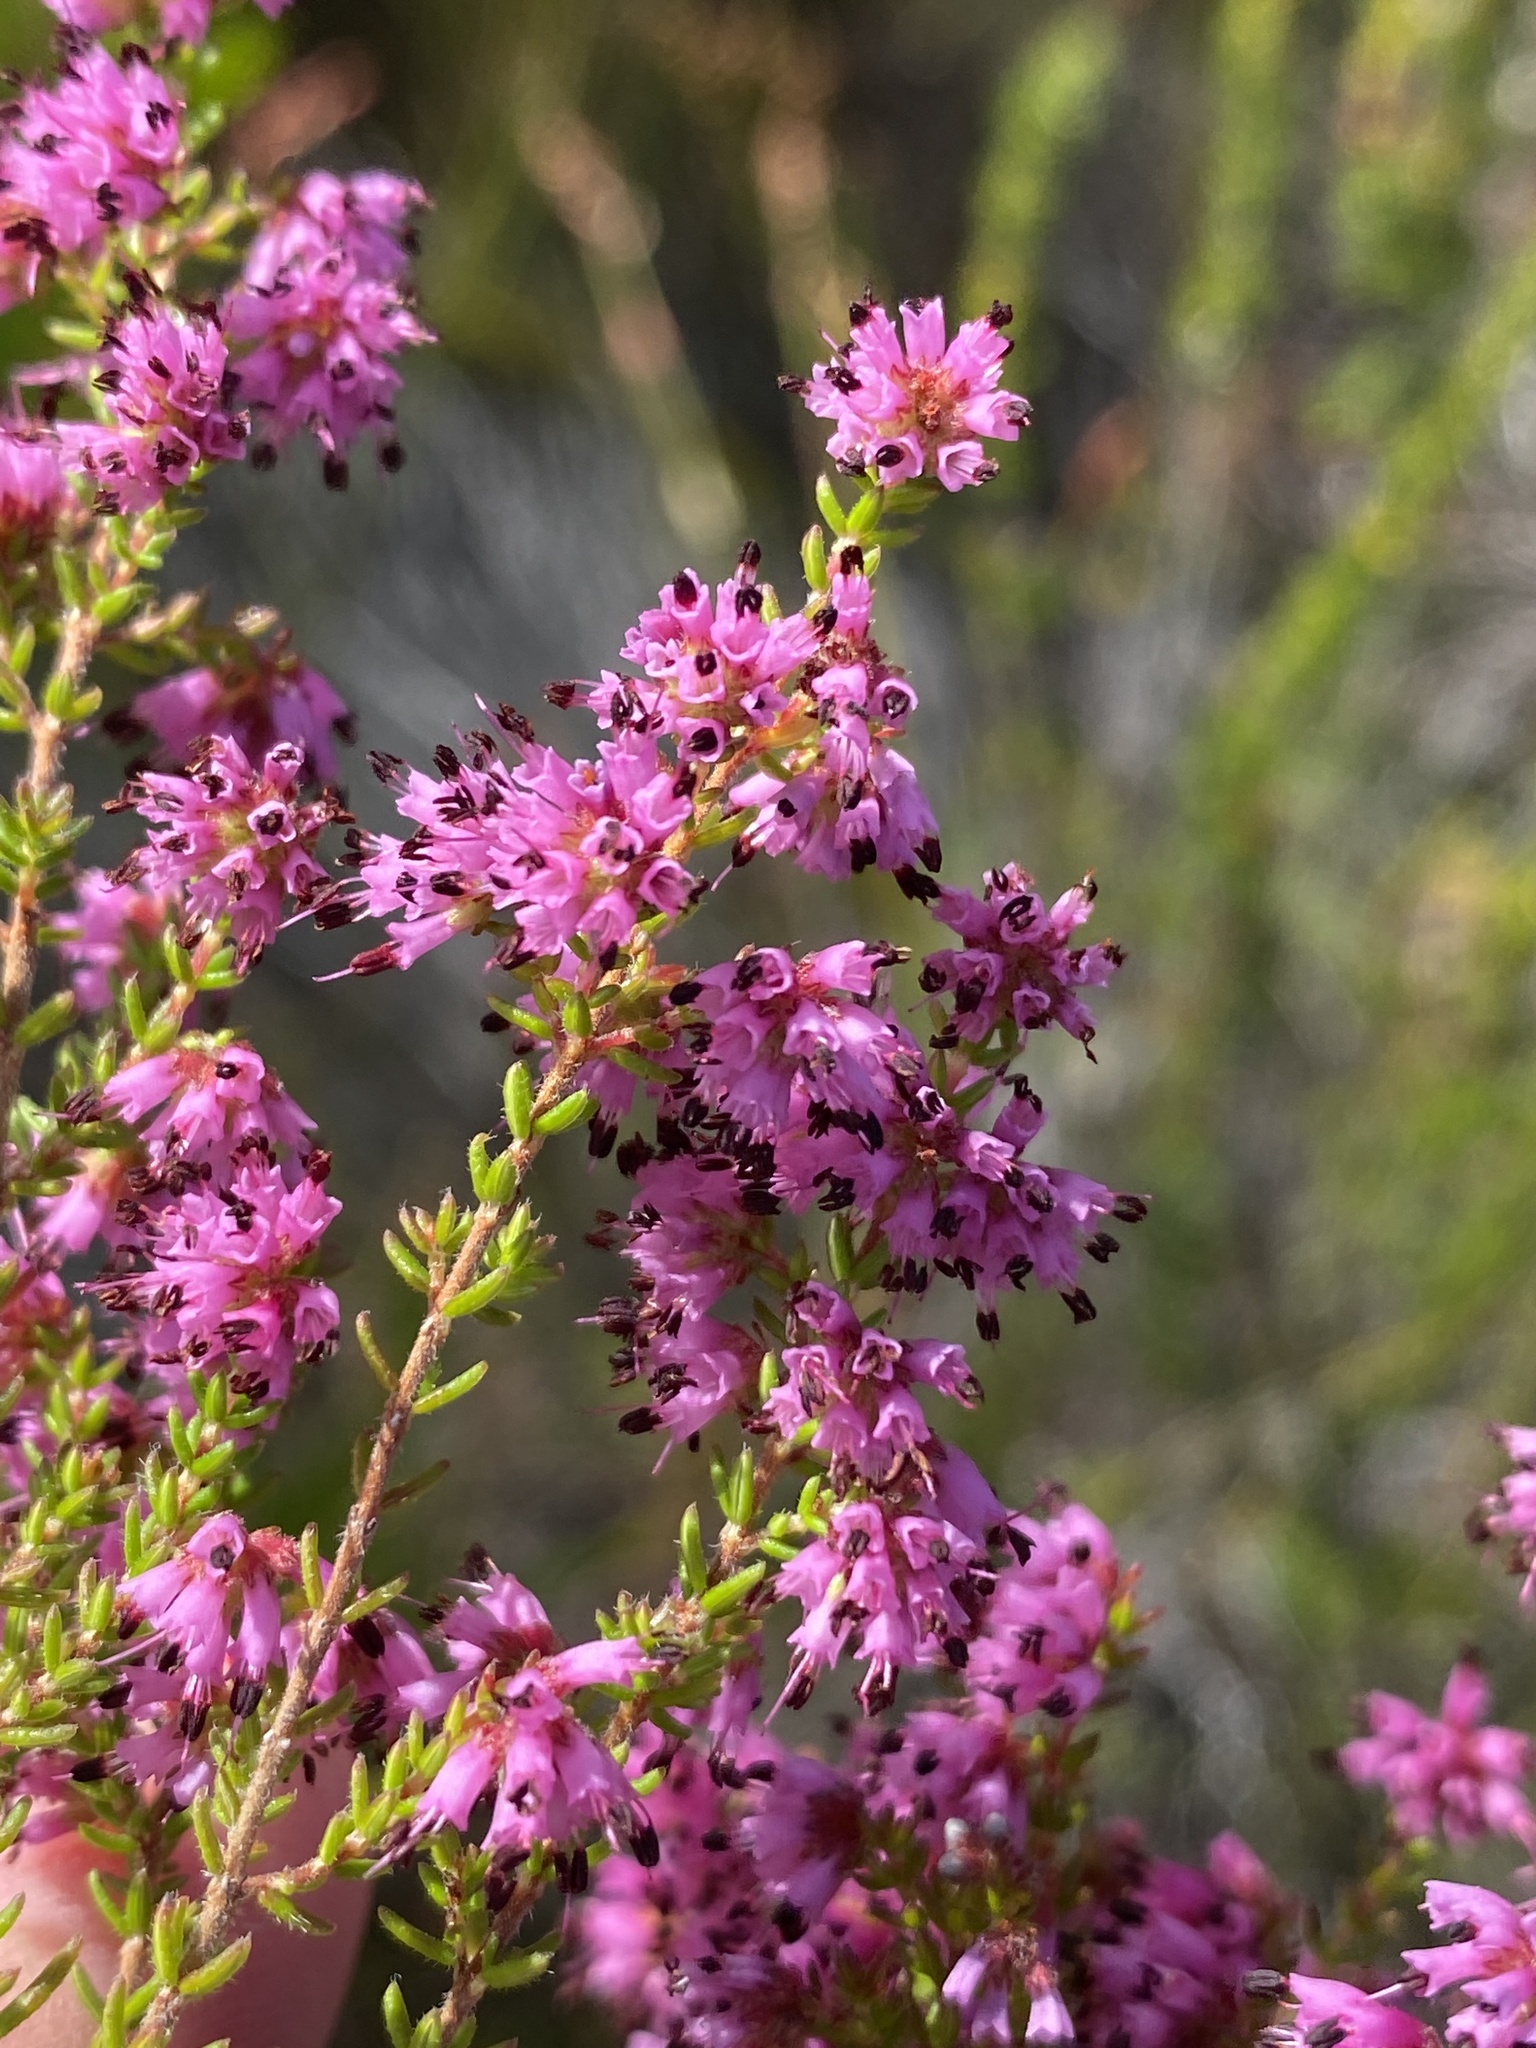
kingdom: Plantae
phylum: Tracheophyta
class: Magnoliopsida
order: Ericales
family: Ericaceae
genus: Erica
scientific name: Erica radicans
